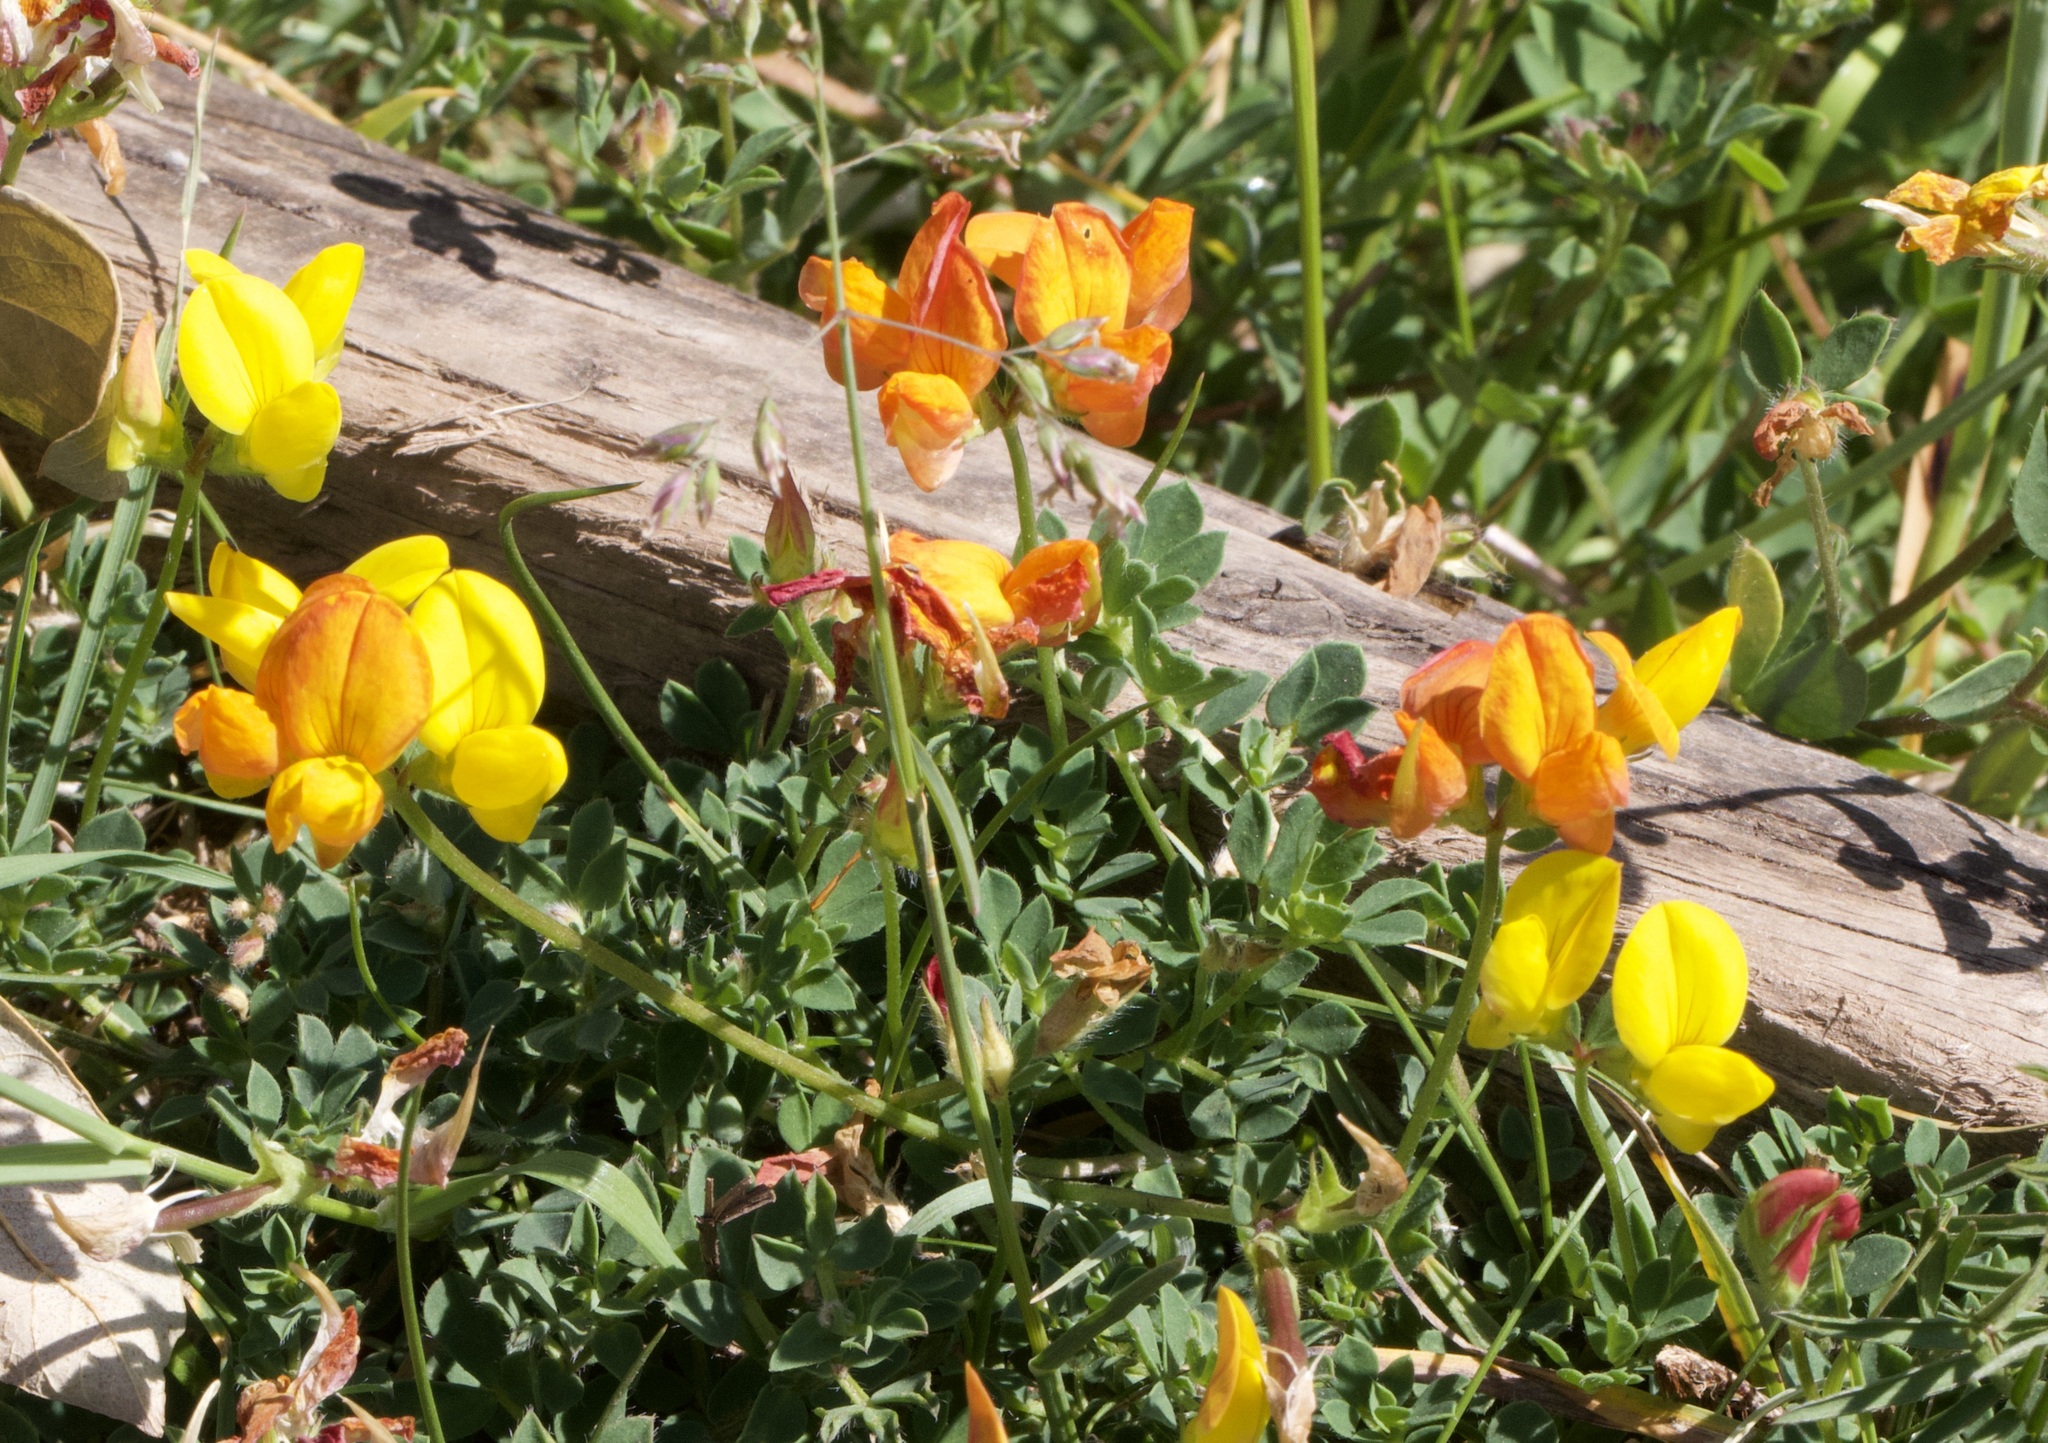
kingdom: Plantae
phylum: Tracheophyta
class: Magnoliopsida
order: Fabales
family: Fabaceae
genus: Lotus
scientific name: Lotus corniculatus
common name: Common bird's-foot-trefoil
